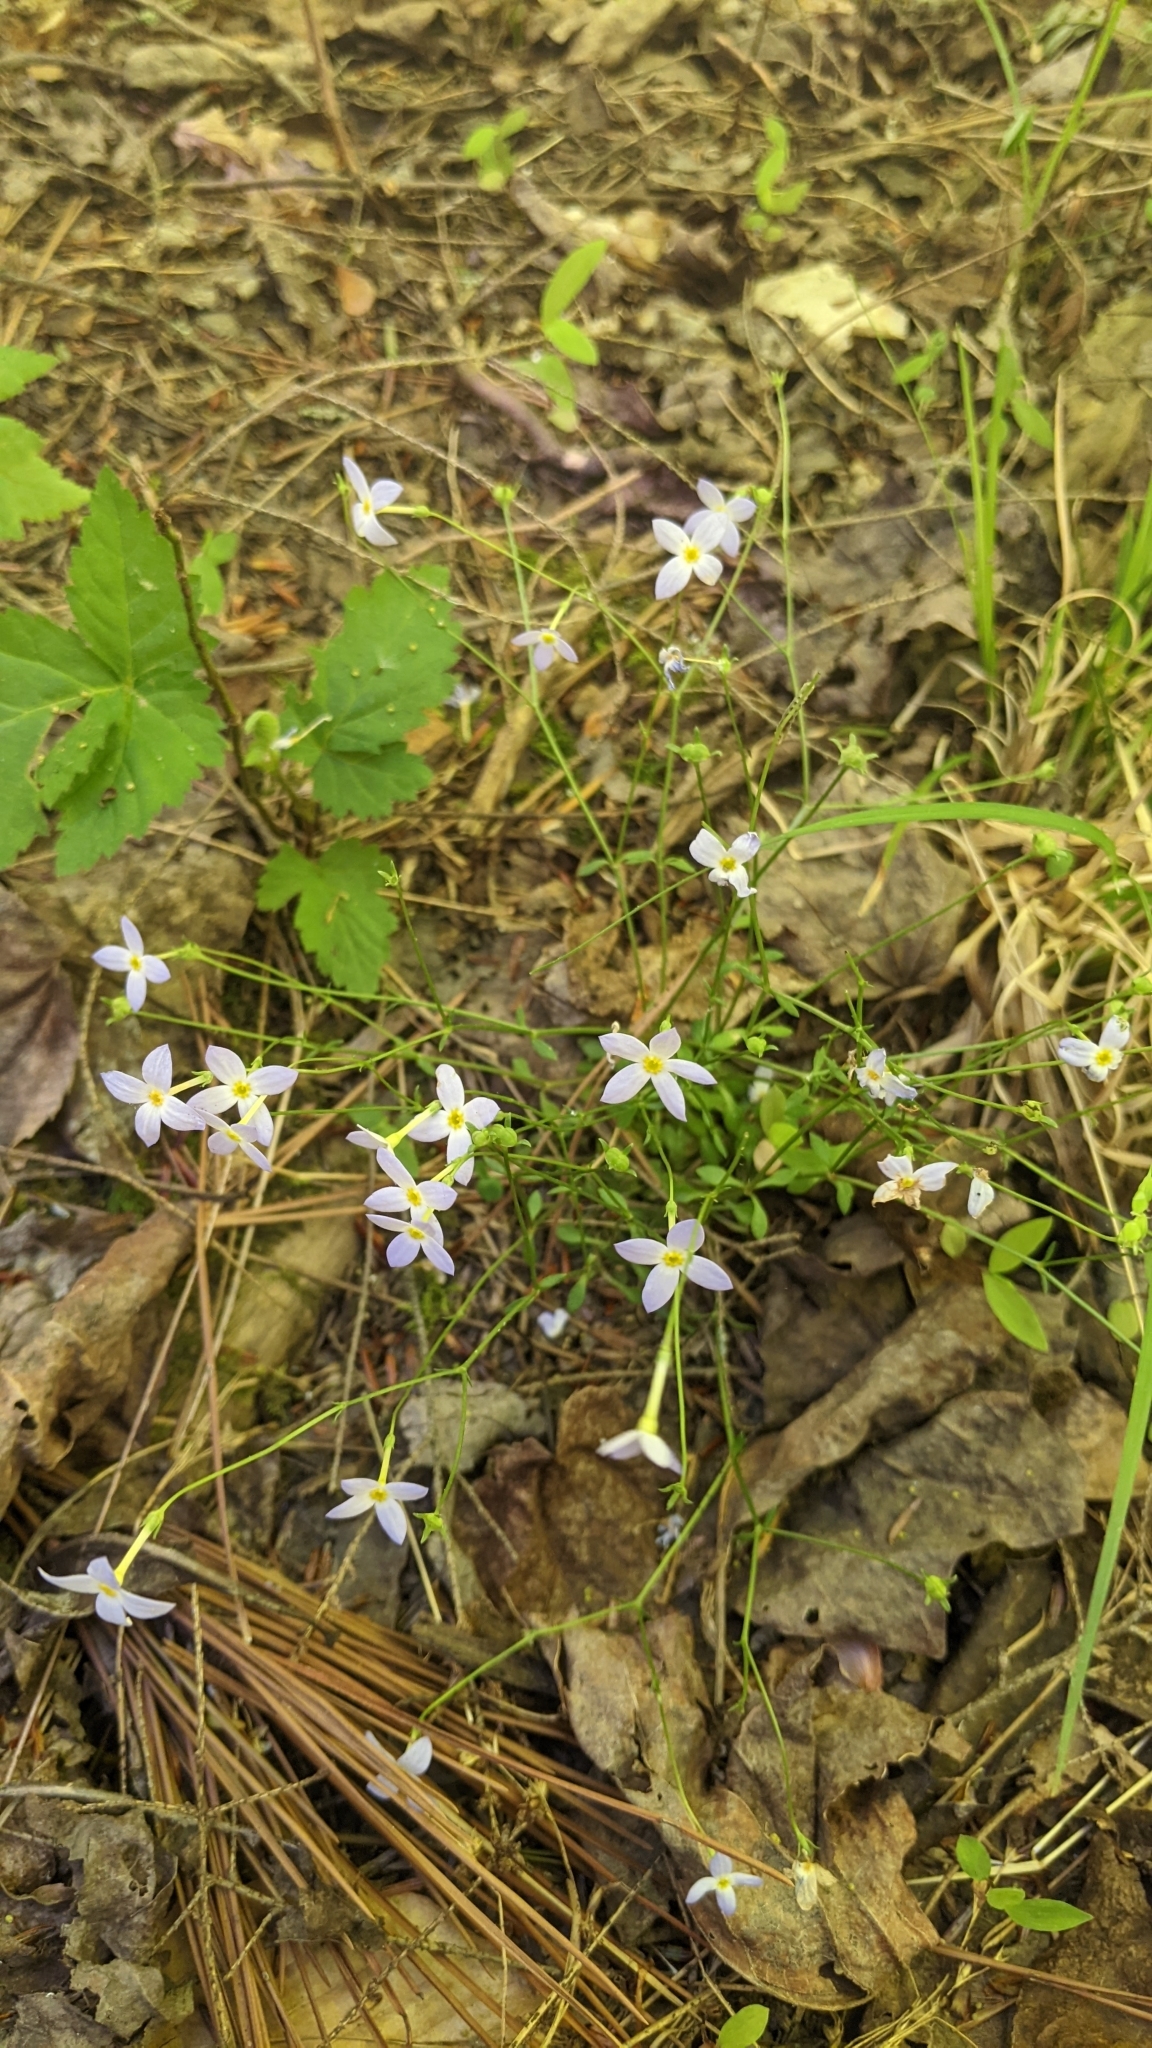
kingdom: Plantae
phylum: Tracheophyta
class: Magnoliopsida
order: Gentianales
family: Rubiaceae
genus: Houstonia
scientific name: Houstonia caerulea
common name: Bluets
